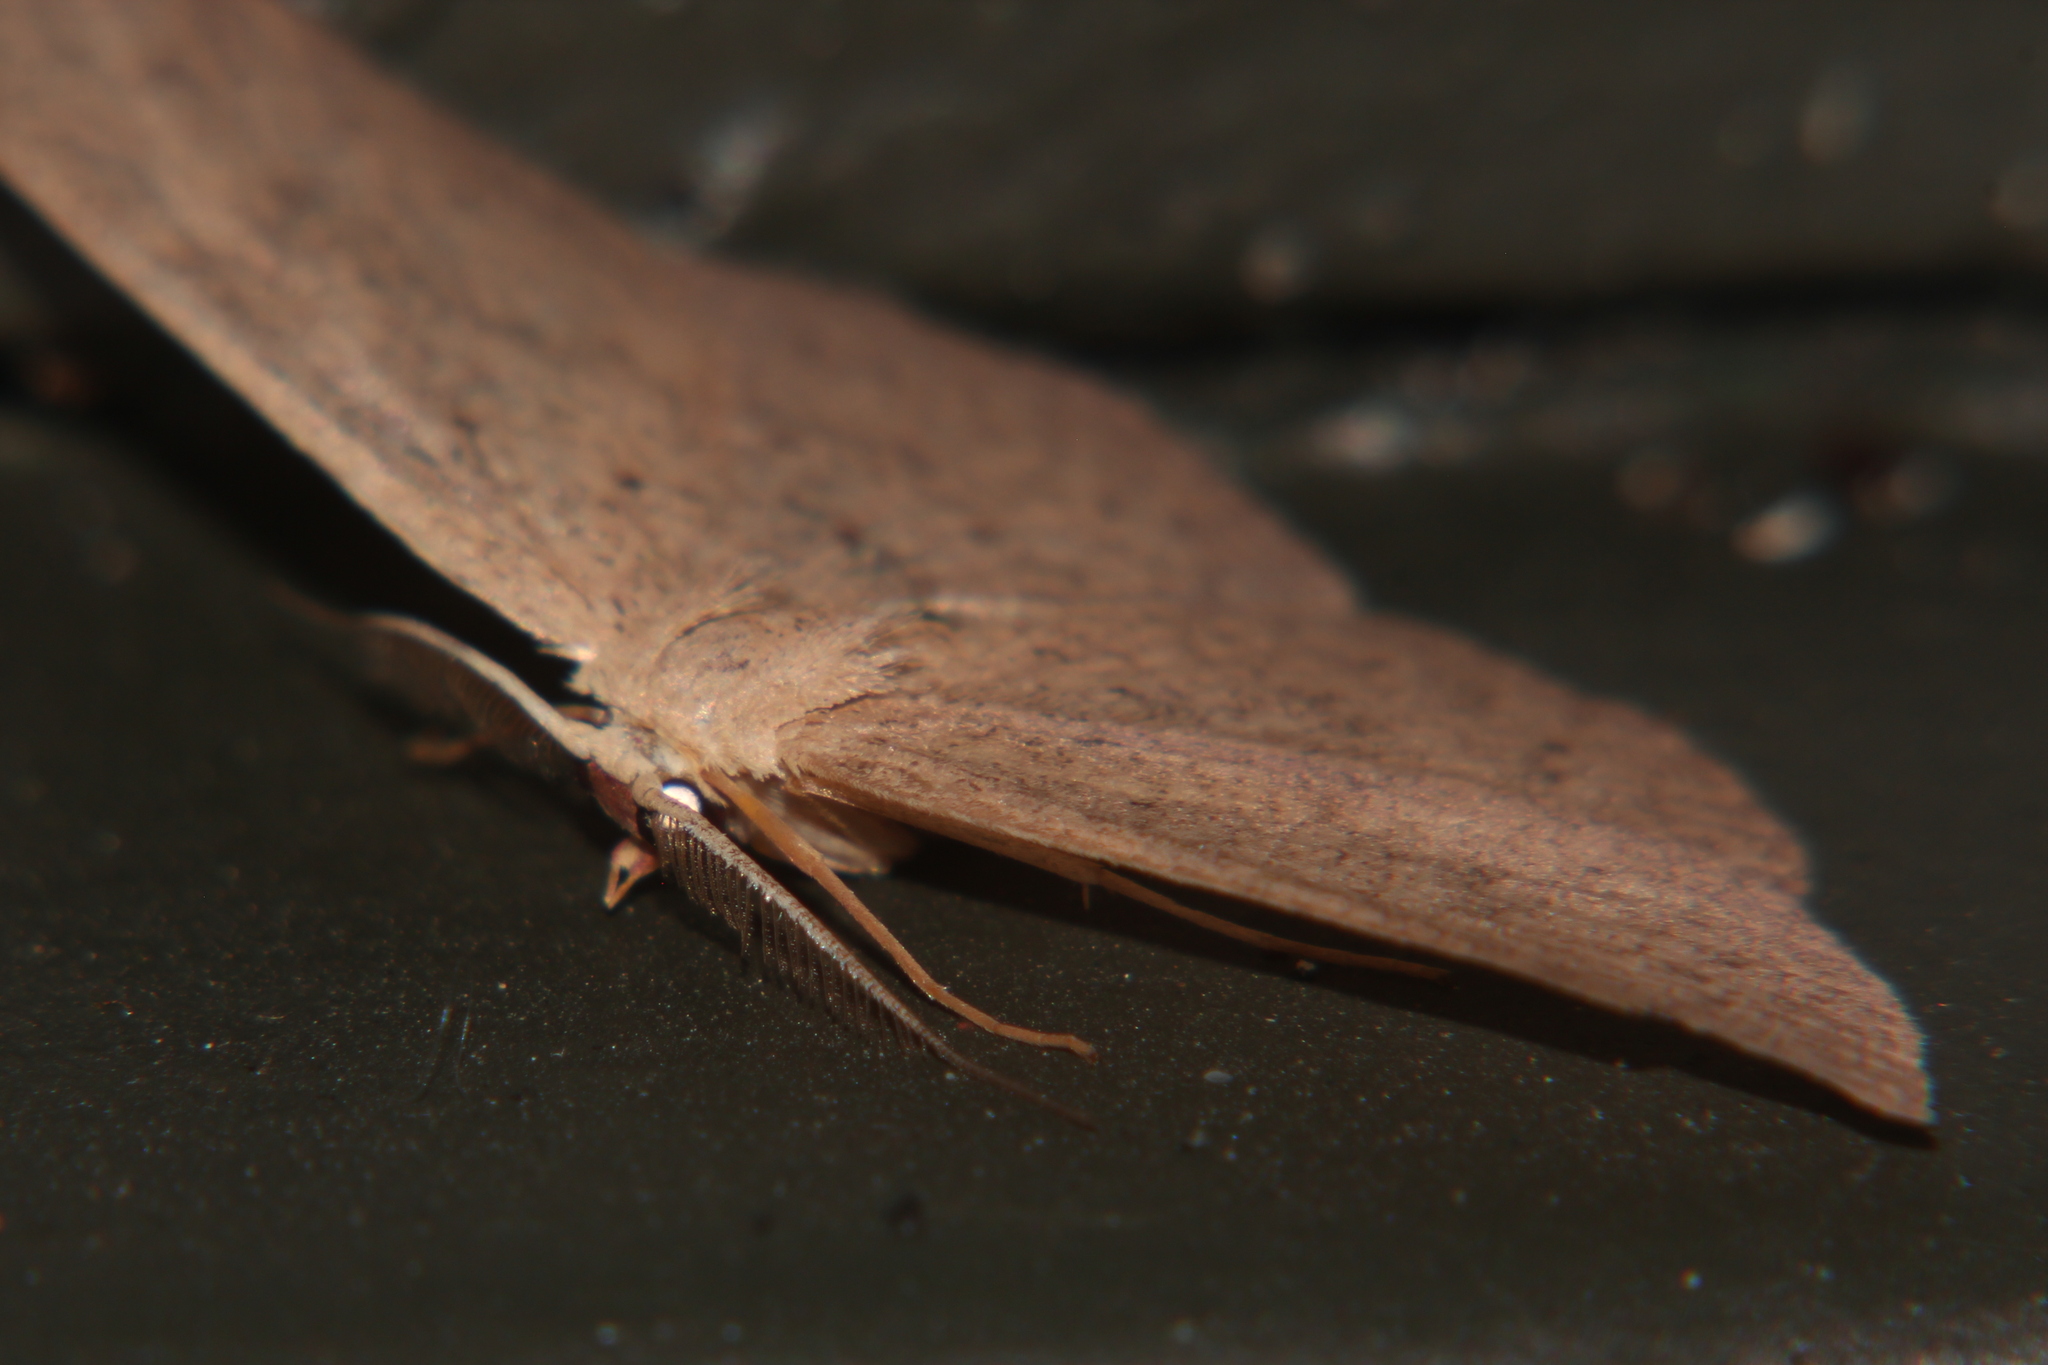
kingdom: Animalia
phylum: Arthropoda
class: Insecta
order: Lepidoptera
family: Geometridae
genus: Cyclophora
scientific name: Cyclophora obstataria
